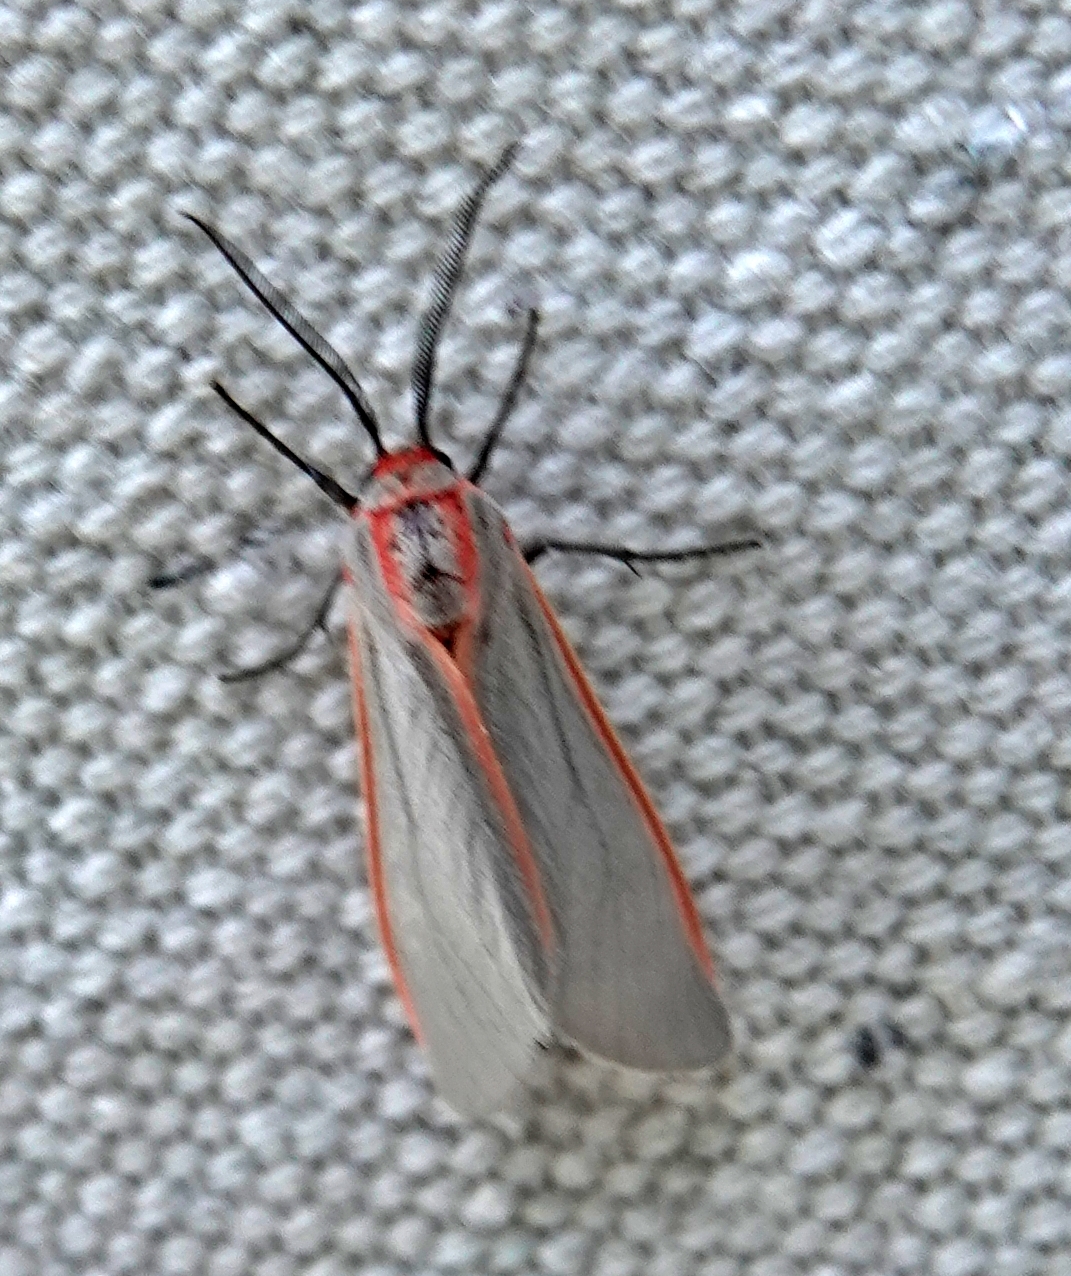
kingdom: Animalia
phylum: Arthropoda
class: Insecta
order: Lepidoptera
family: Erebidae
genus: Pygarctia
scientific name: Pygarctia spraguei
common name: Sprague's pygarctica
